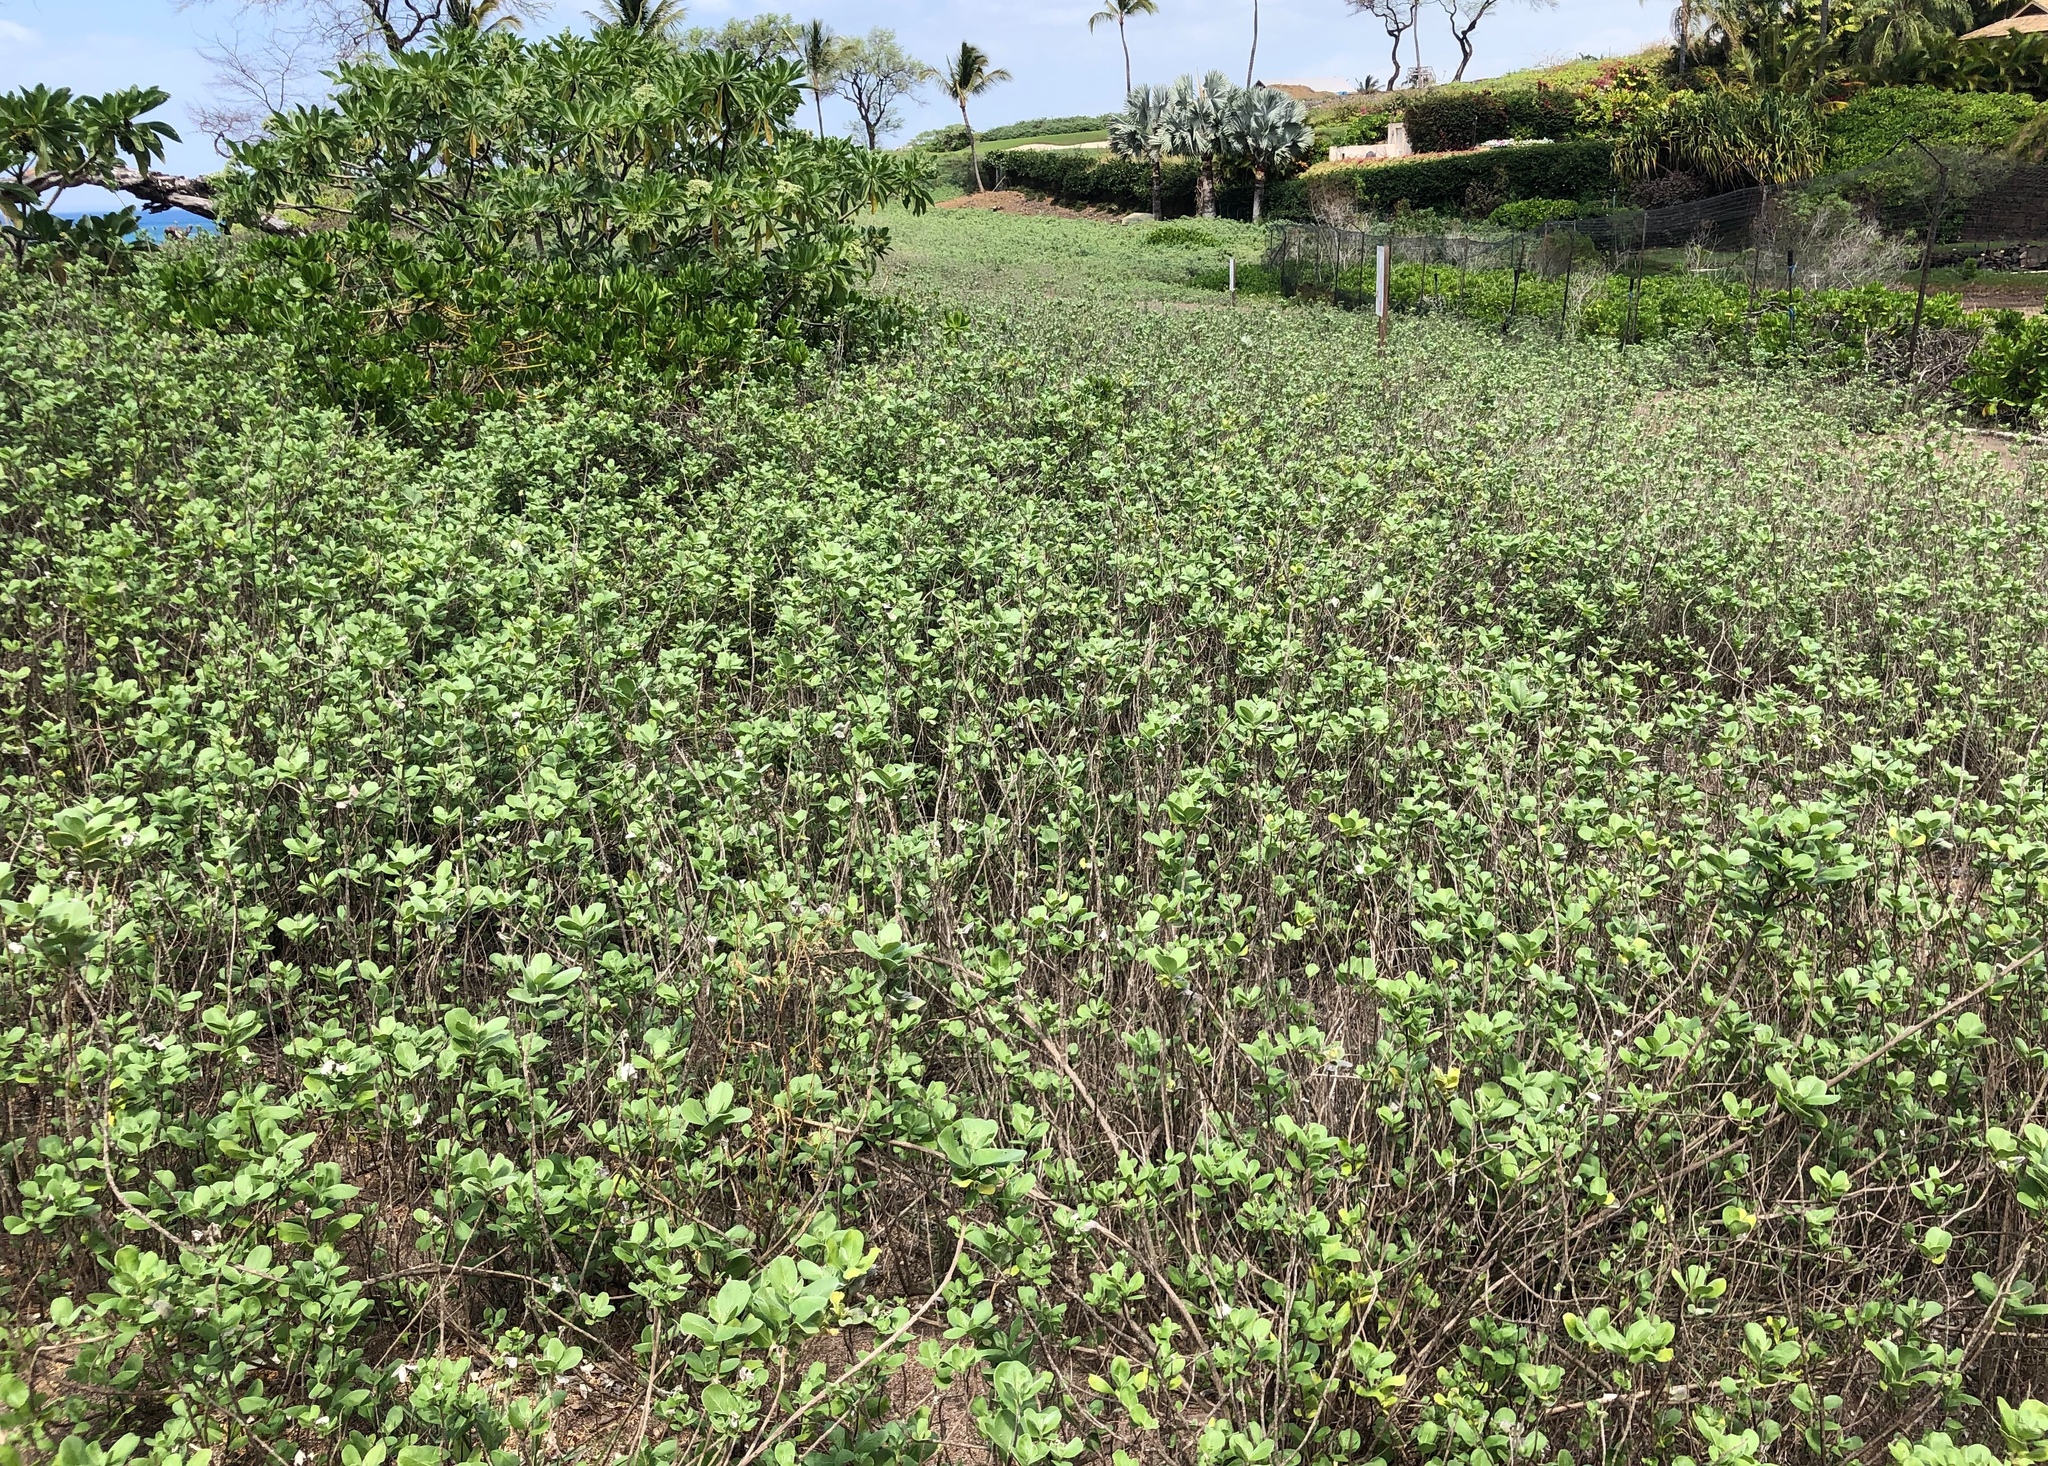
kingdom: Plantae
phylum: Tracheophyta
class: Magnoliopsida
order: Lamiales
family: Lamiaceae
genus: Vitex
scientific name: Vitex rotundifolia
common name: Beach vitex
